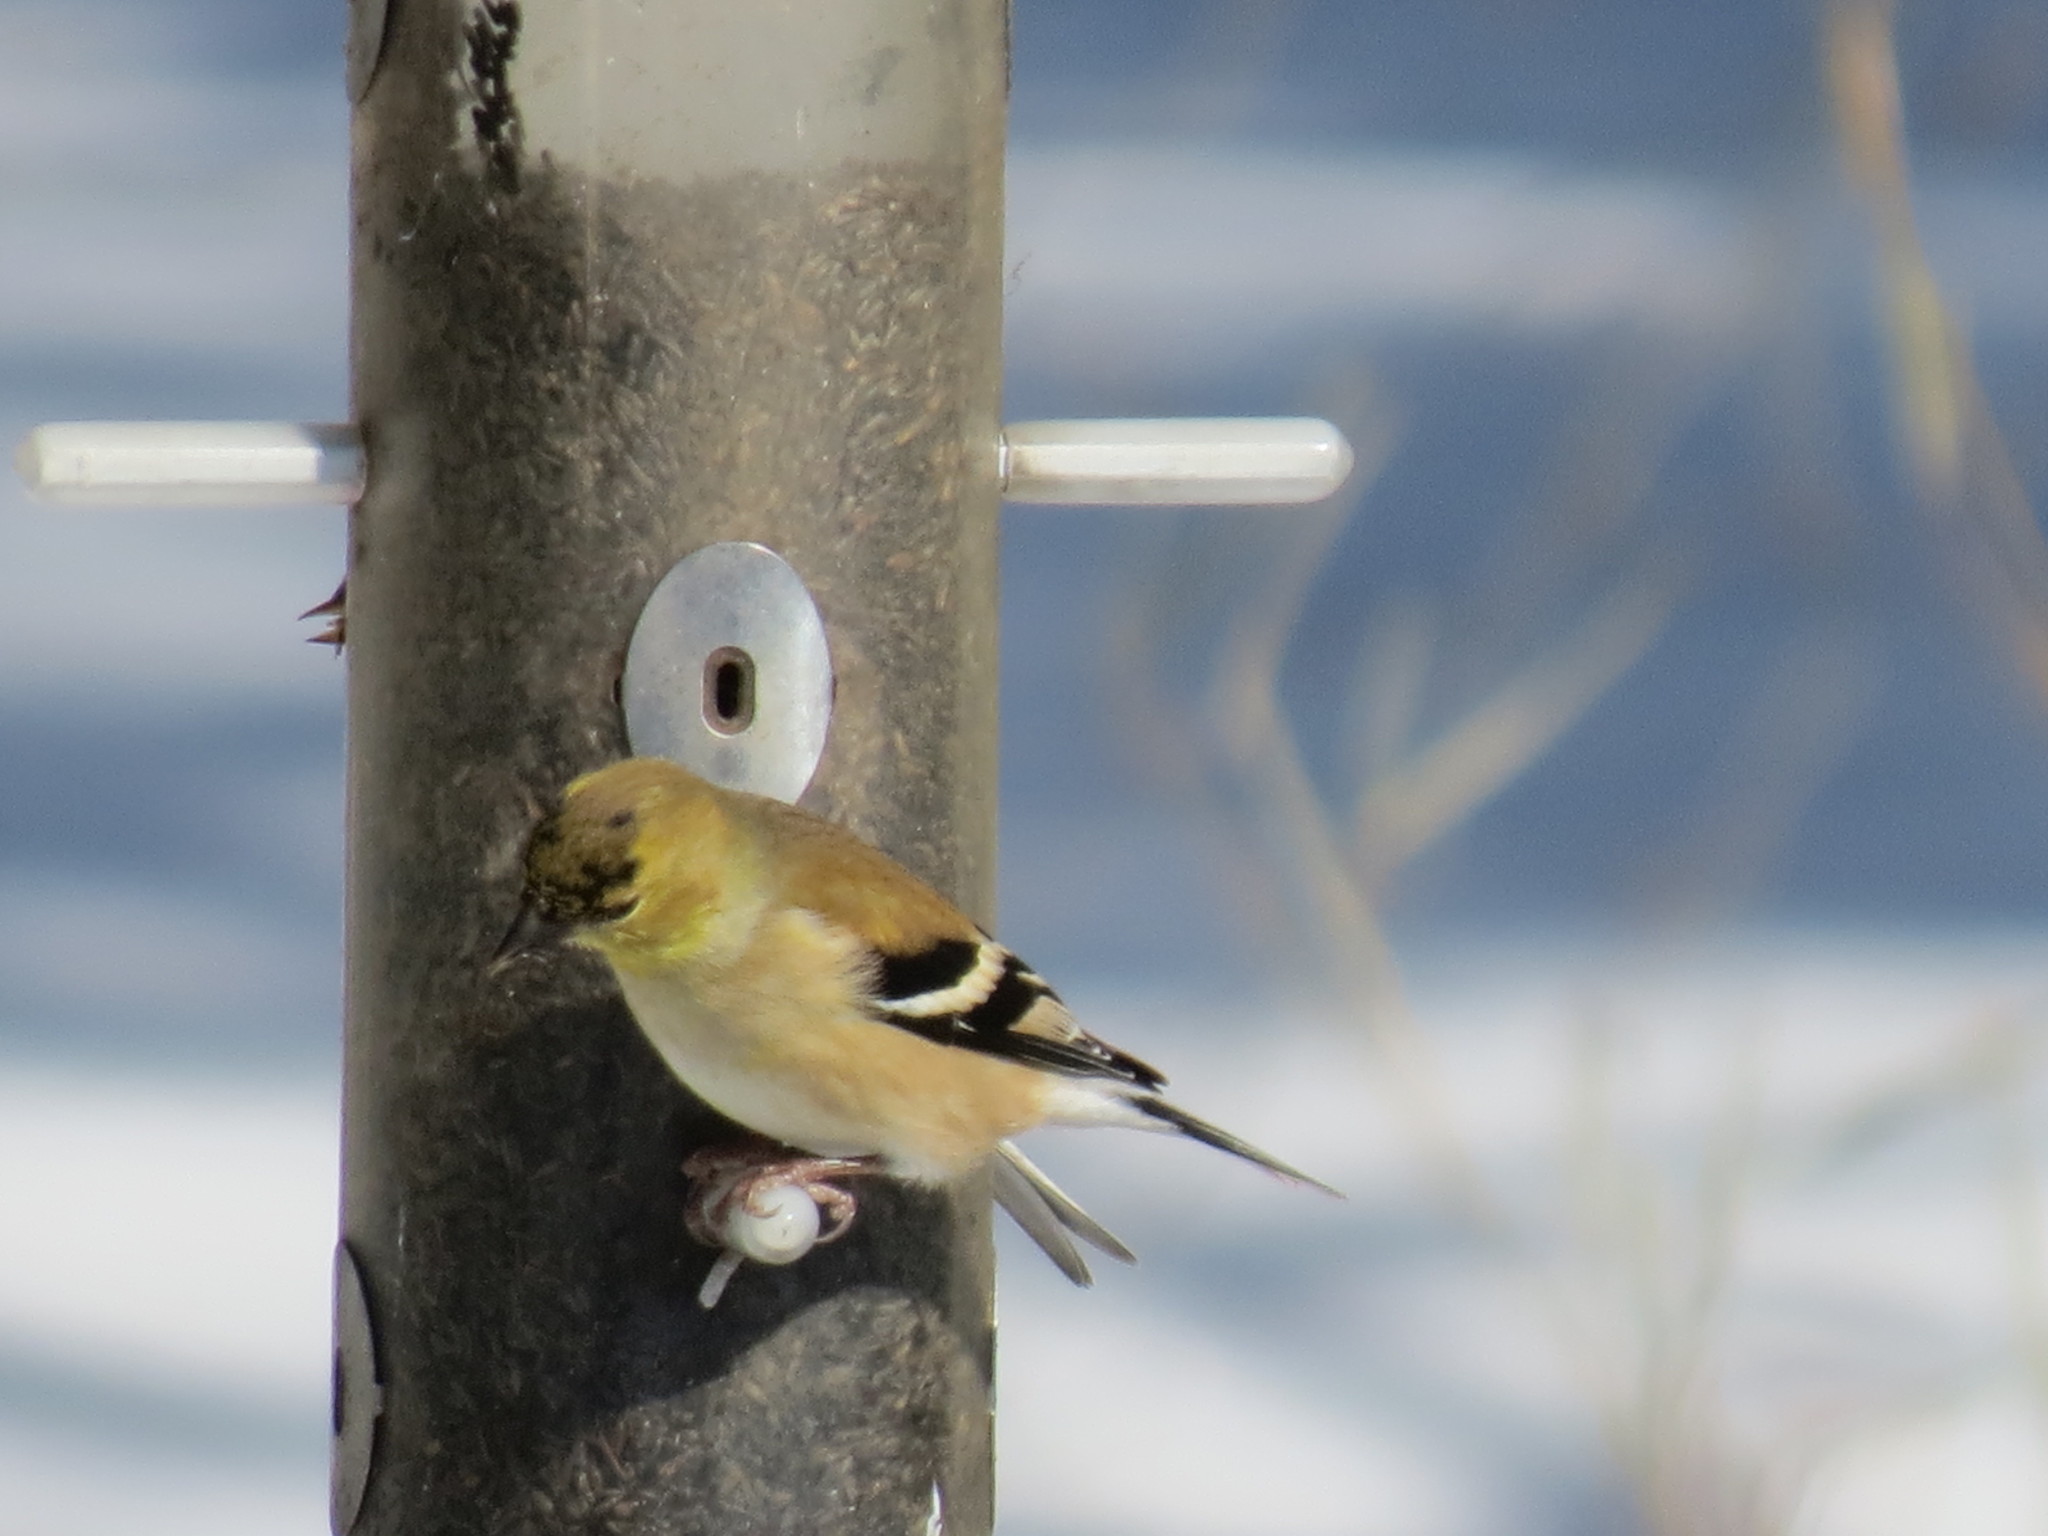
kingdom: Animalia
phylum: Chordata
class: Aves
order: Passeriformes
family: Fringillidae
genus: Spinus
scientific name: Spinus tristis
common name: American goldfinch
